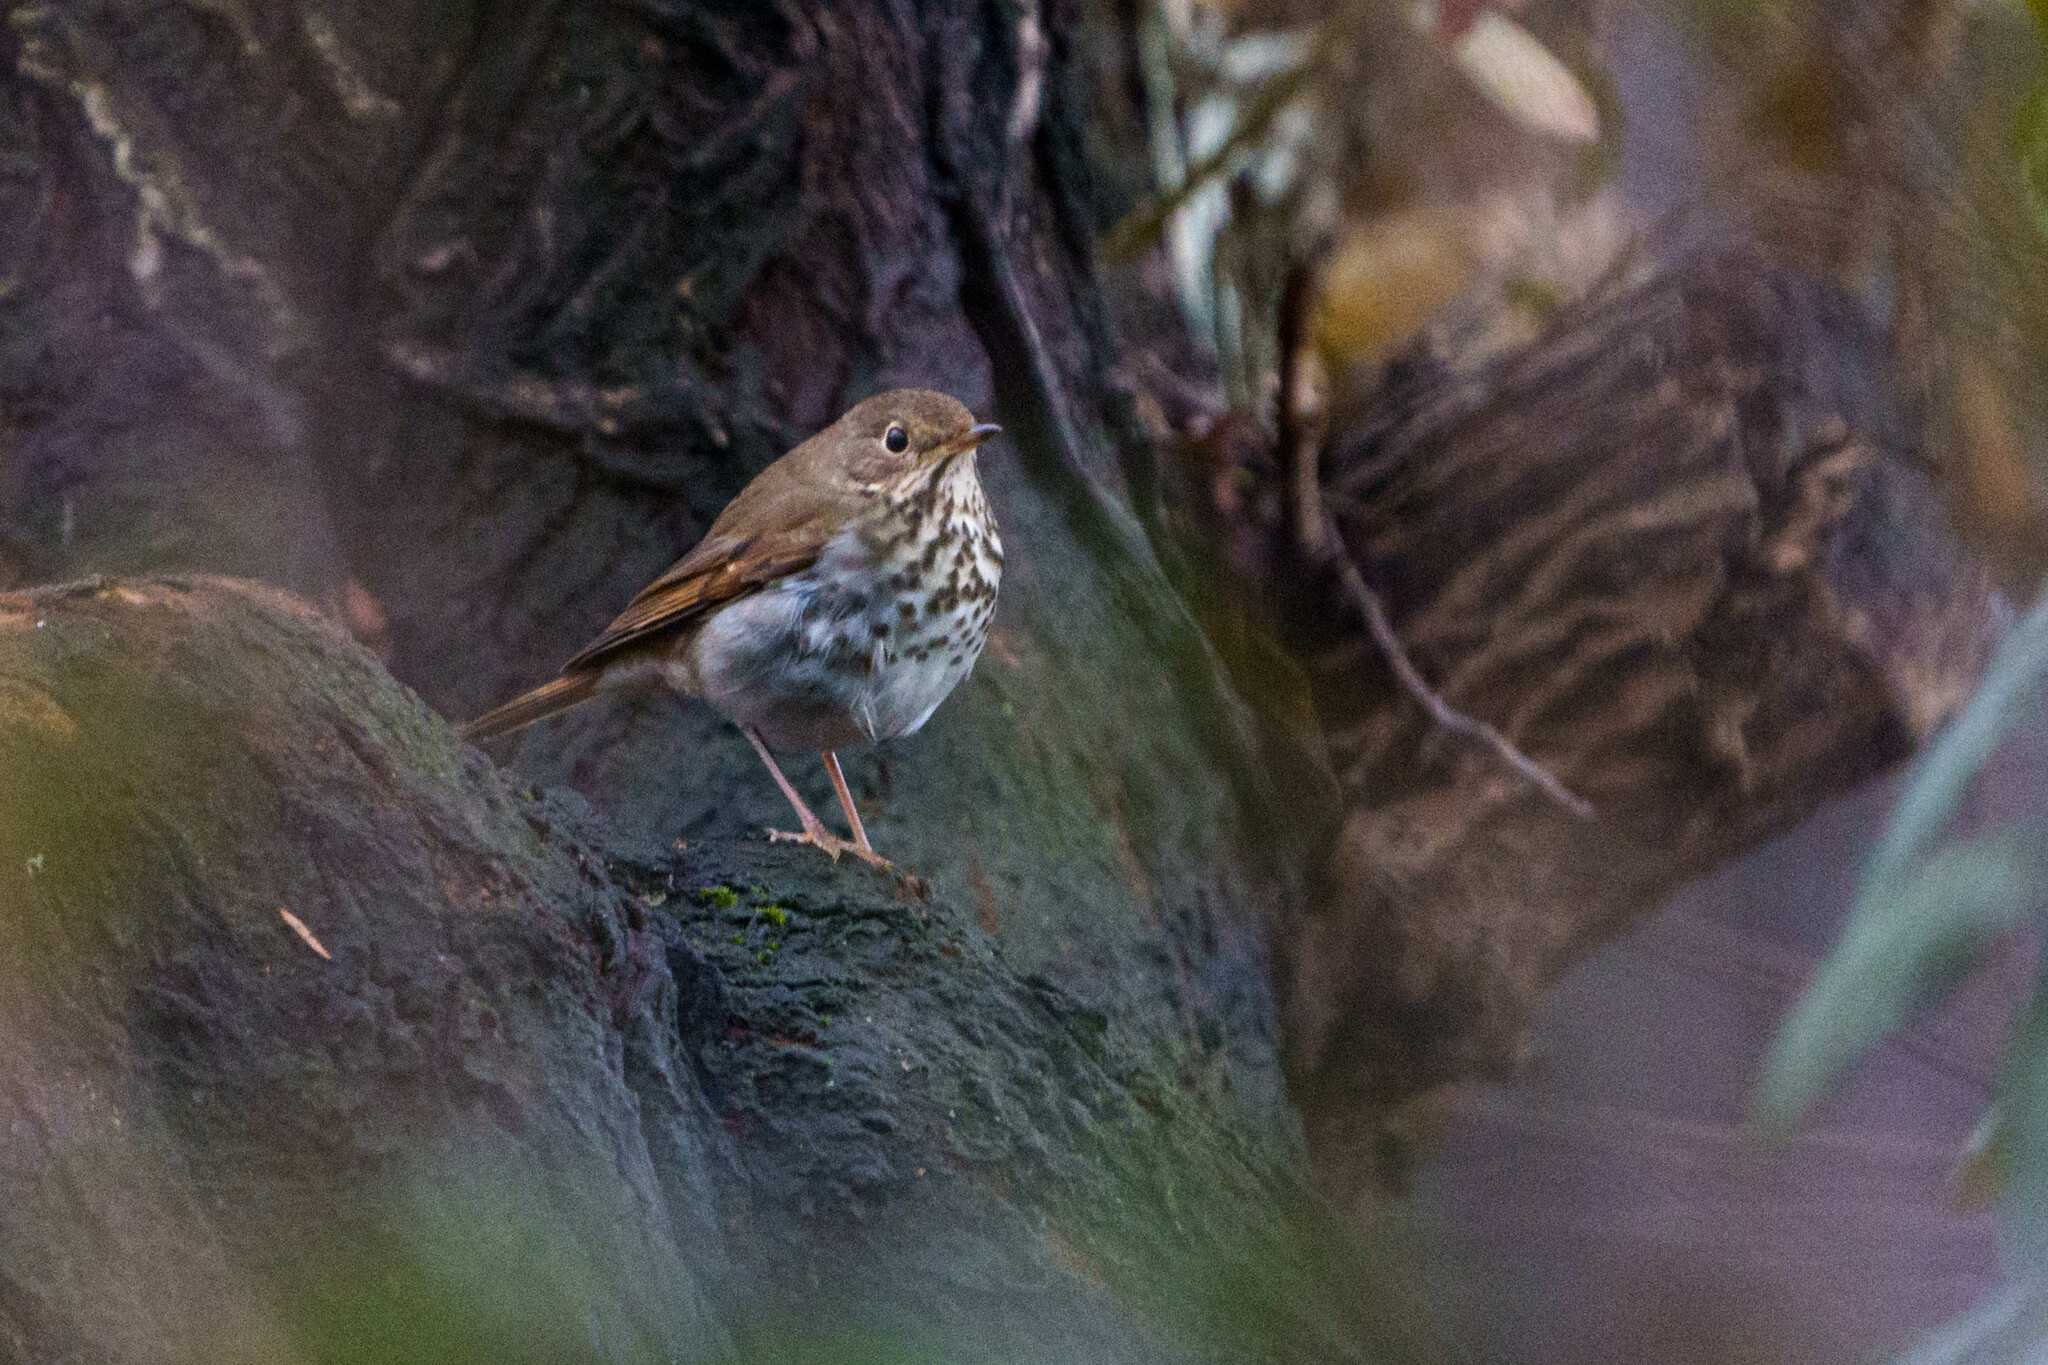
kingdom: Animalia
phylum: Chordata
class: Aves
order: Passeriformes
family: Turdidae
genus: Catharus
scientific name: Catharus guttatus
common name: Hermit thrush
